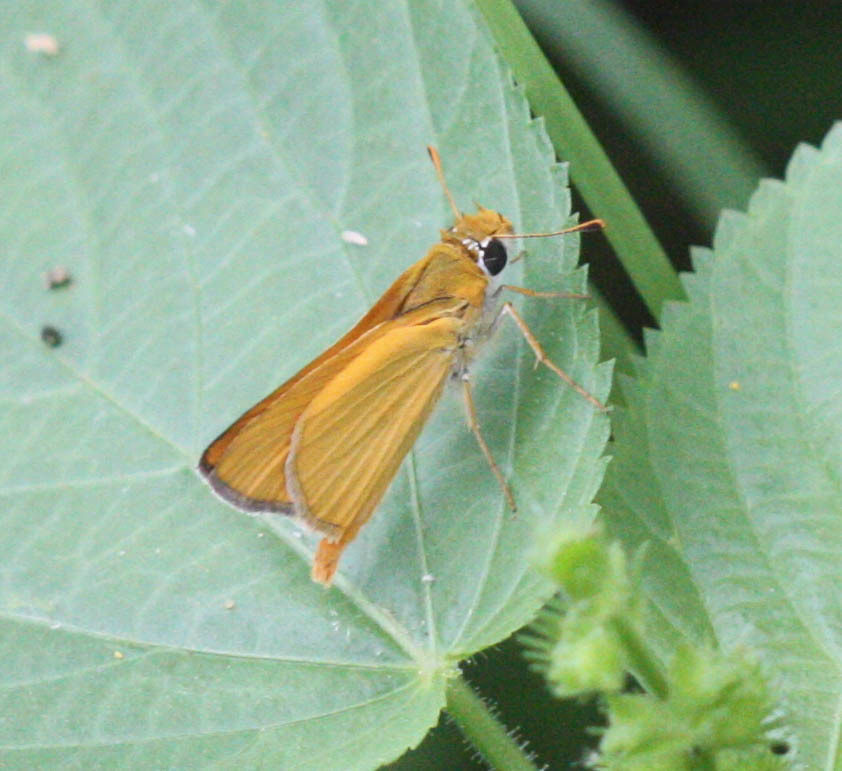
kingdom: Animalia
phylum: Arthropoda
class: Insecta
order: Lepidoptera
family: Hesperiidae
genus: Copaeodes
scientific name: Copaeodes aurantiaca
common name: Orange skipperling
